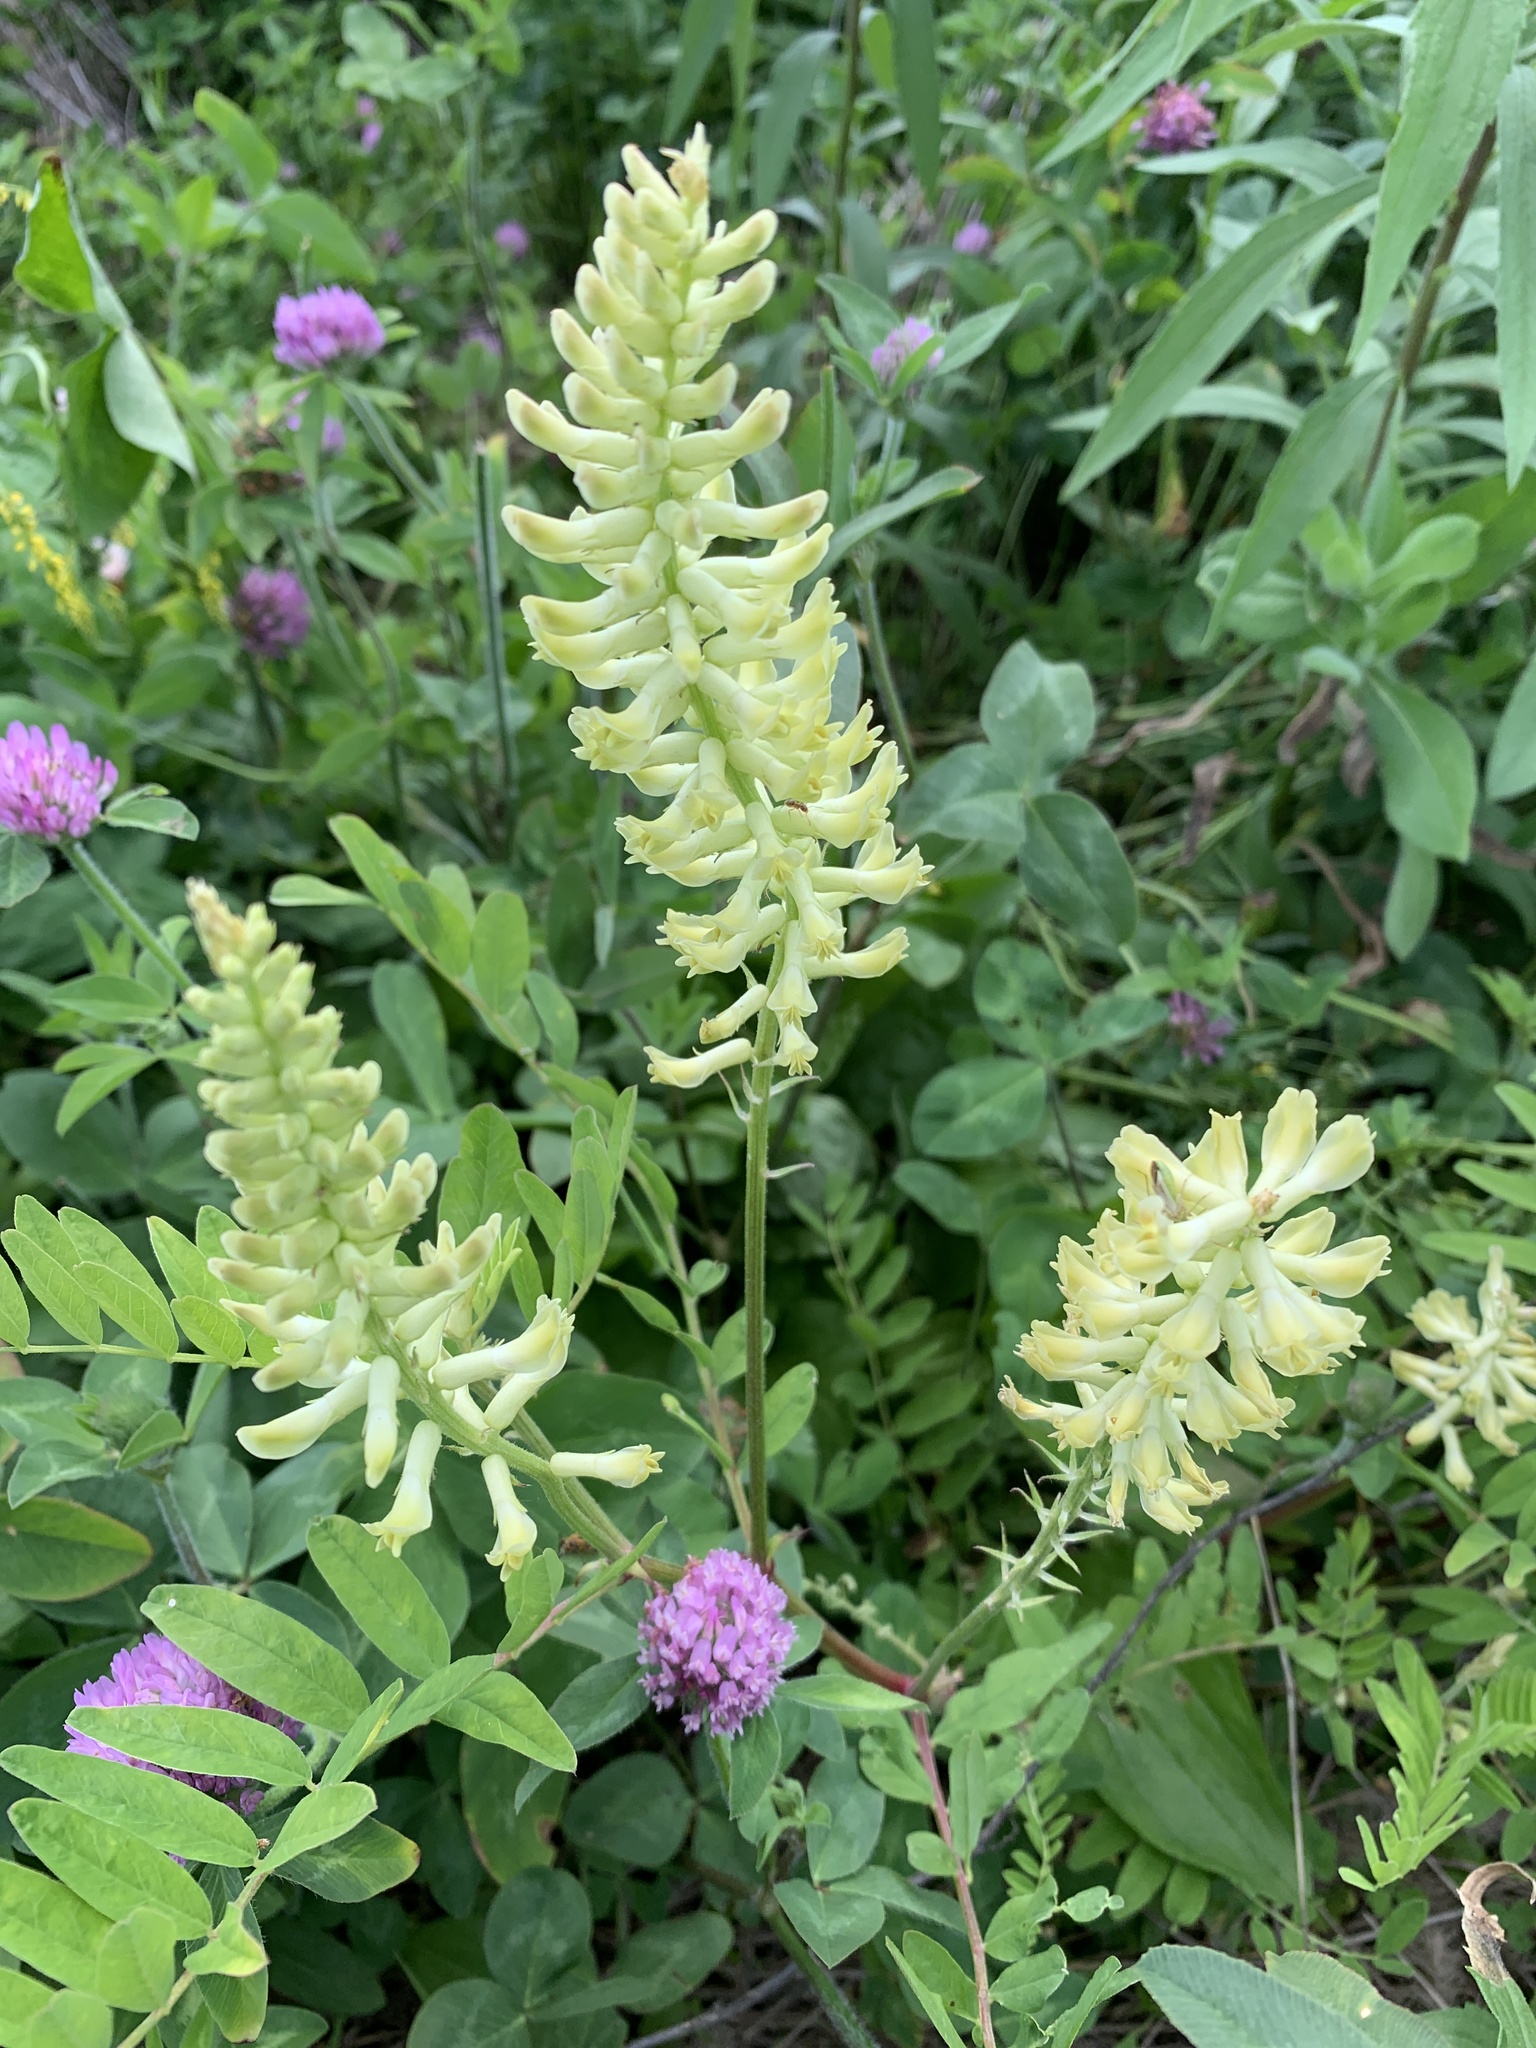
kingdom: Plantae
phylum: Tracheophyta
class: Magnoliopsida
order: Fabales
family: Fabaceae
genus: Astragalus
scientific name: Astragalus canadensis
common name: Canada milk-vetch
